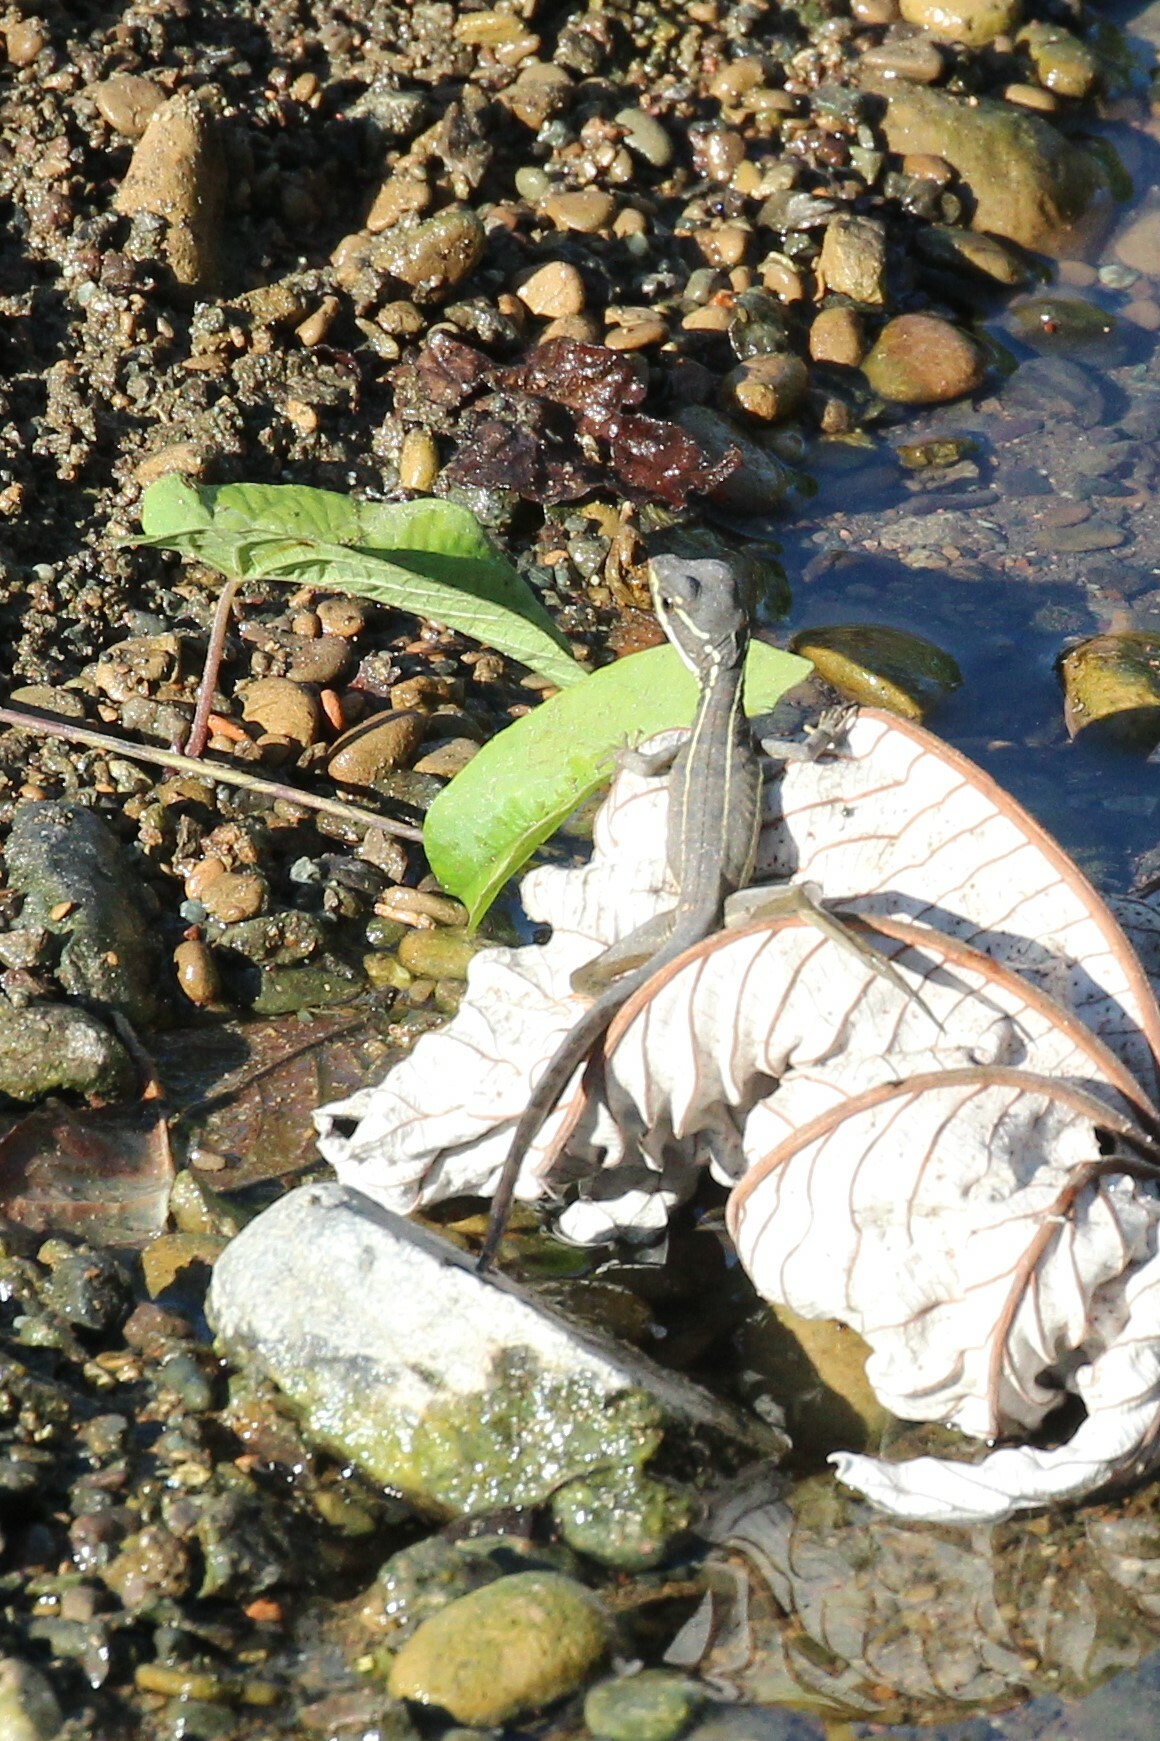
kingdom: Animalia
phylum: Chordata
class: Squamata
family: Corytophanidae
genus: Basiliscus
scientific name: Basiliscus basiliscus
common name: Common basilisk
